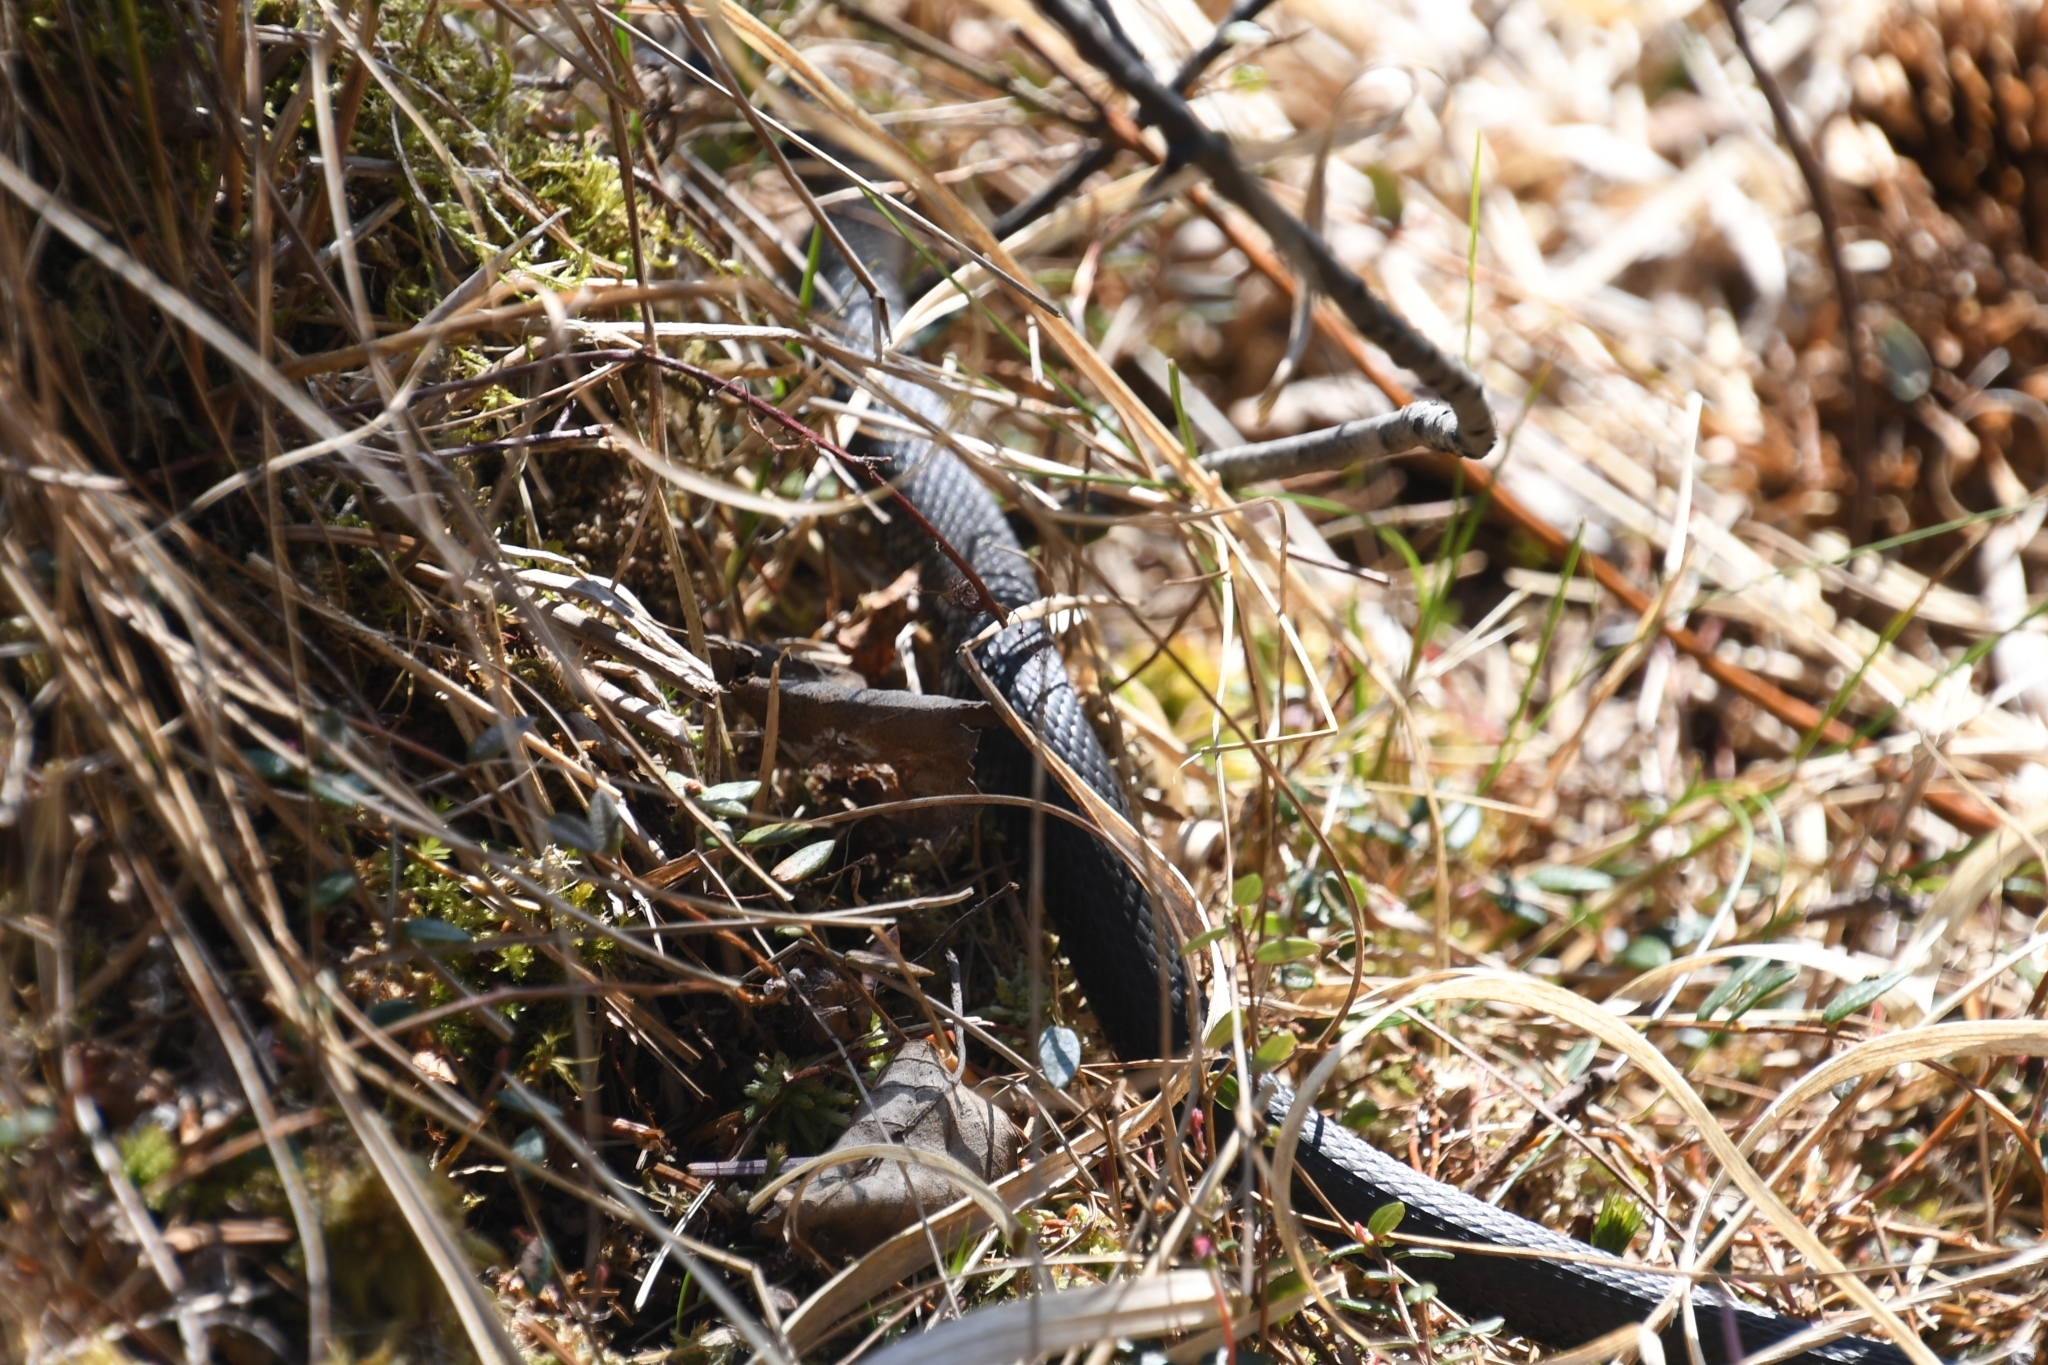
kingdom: Animalia
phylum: Chordata
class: Squamata
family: Colubridae
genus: Natrix
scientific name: Natrix natrix
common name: Grass snake
